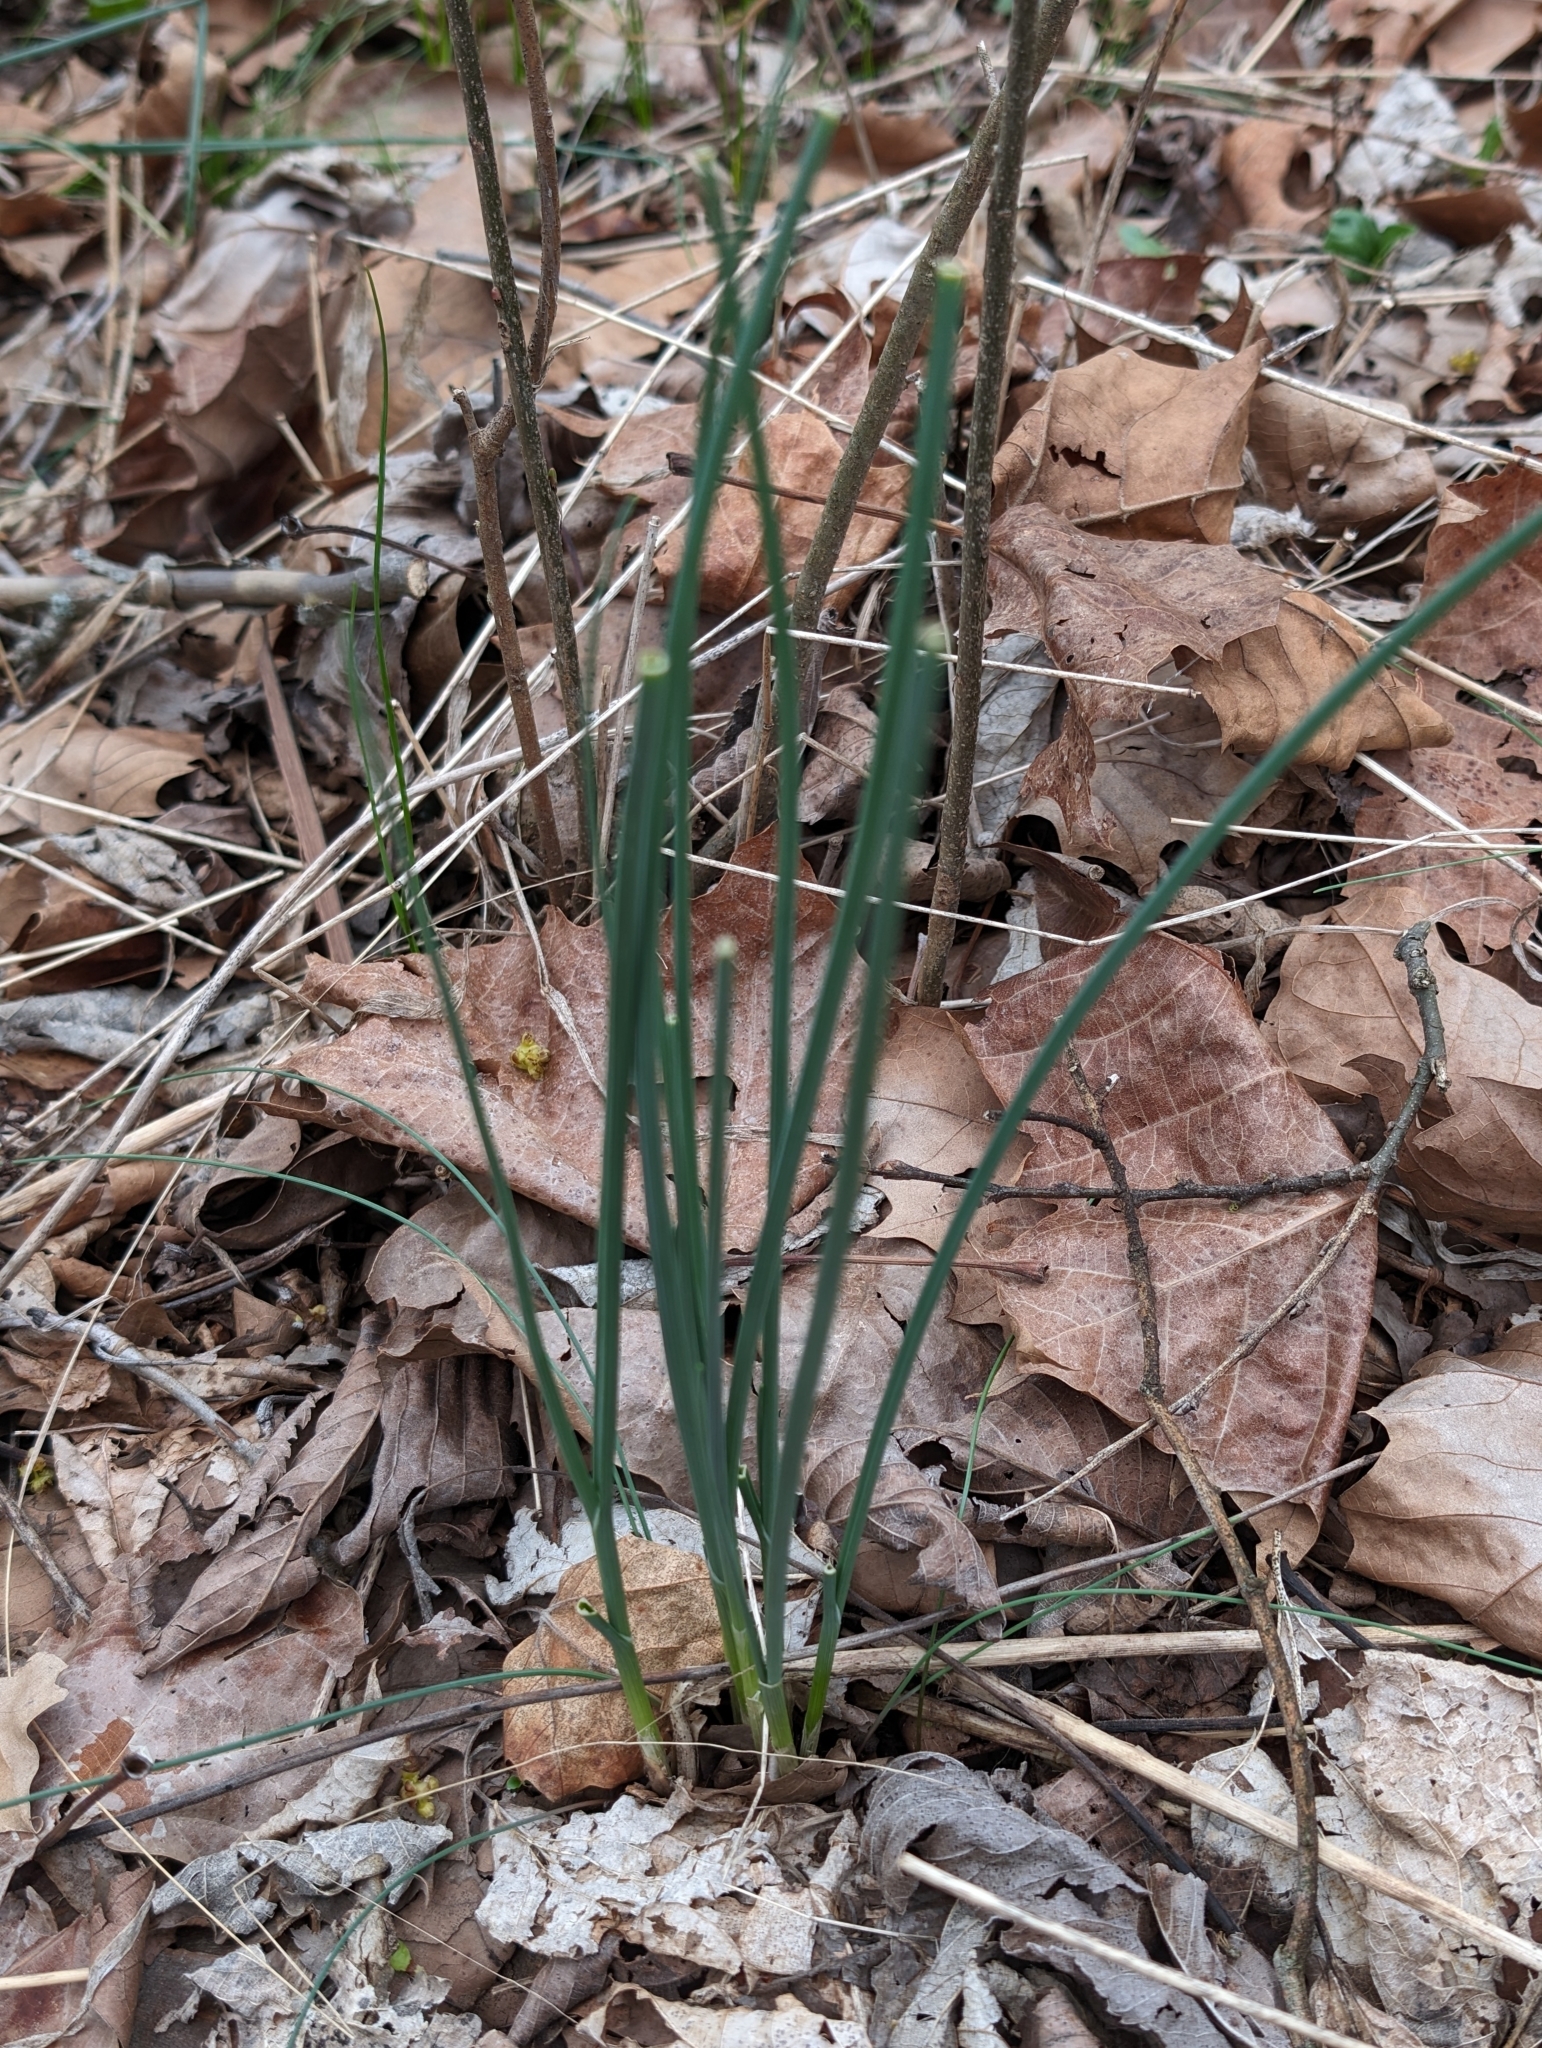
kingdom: Plantae
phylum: Tracheophyta
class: Liliopsida
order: Asparagales
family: Amaryllidaceae
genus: Allium
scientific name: Allium vineale
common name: Crow garlic
